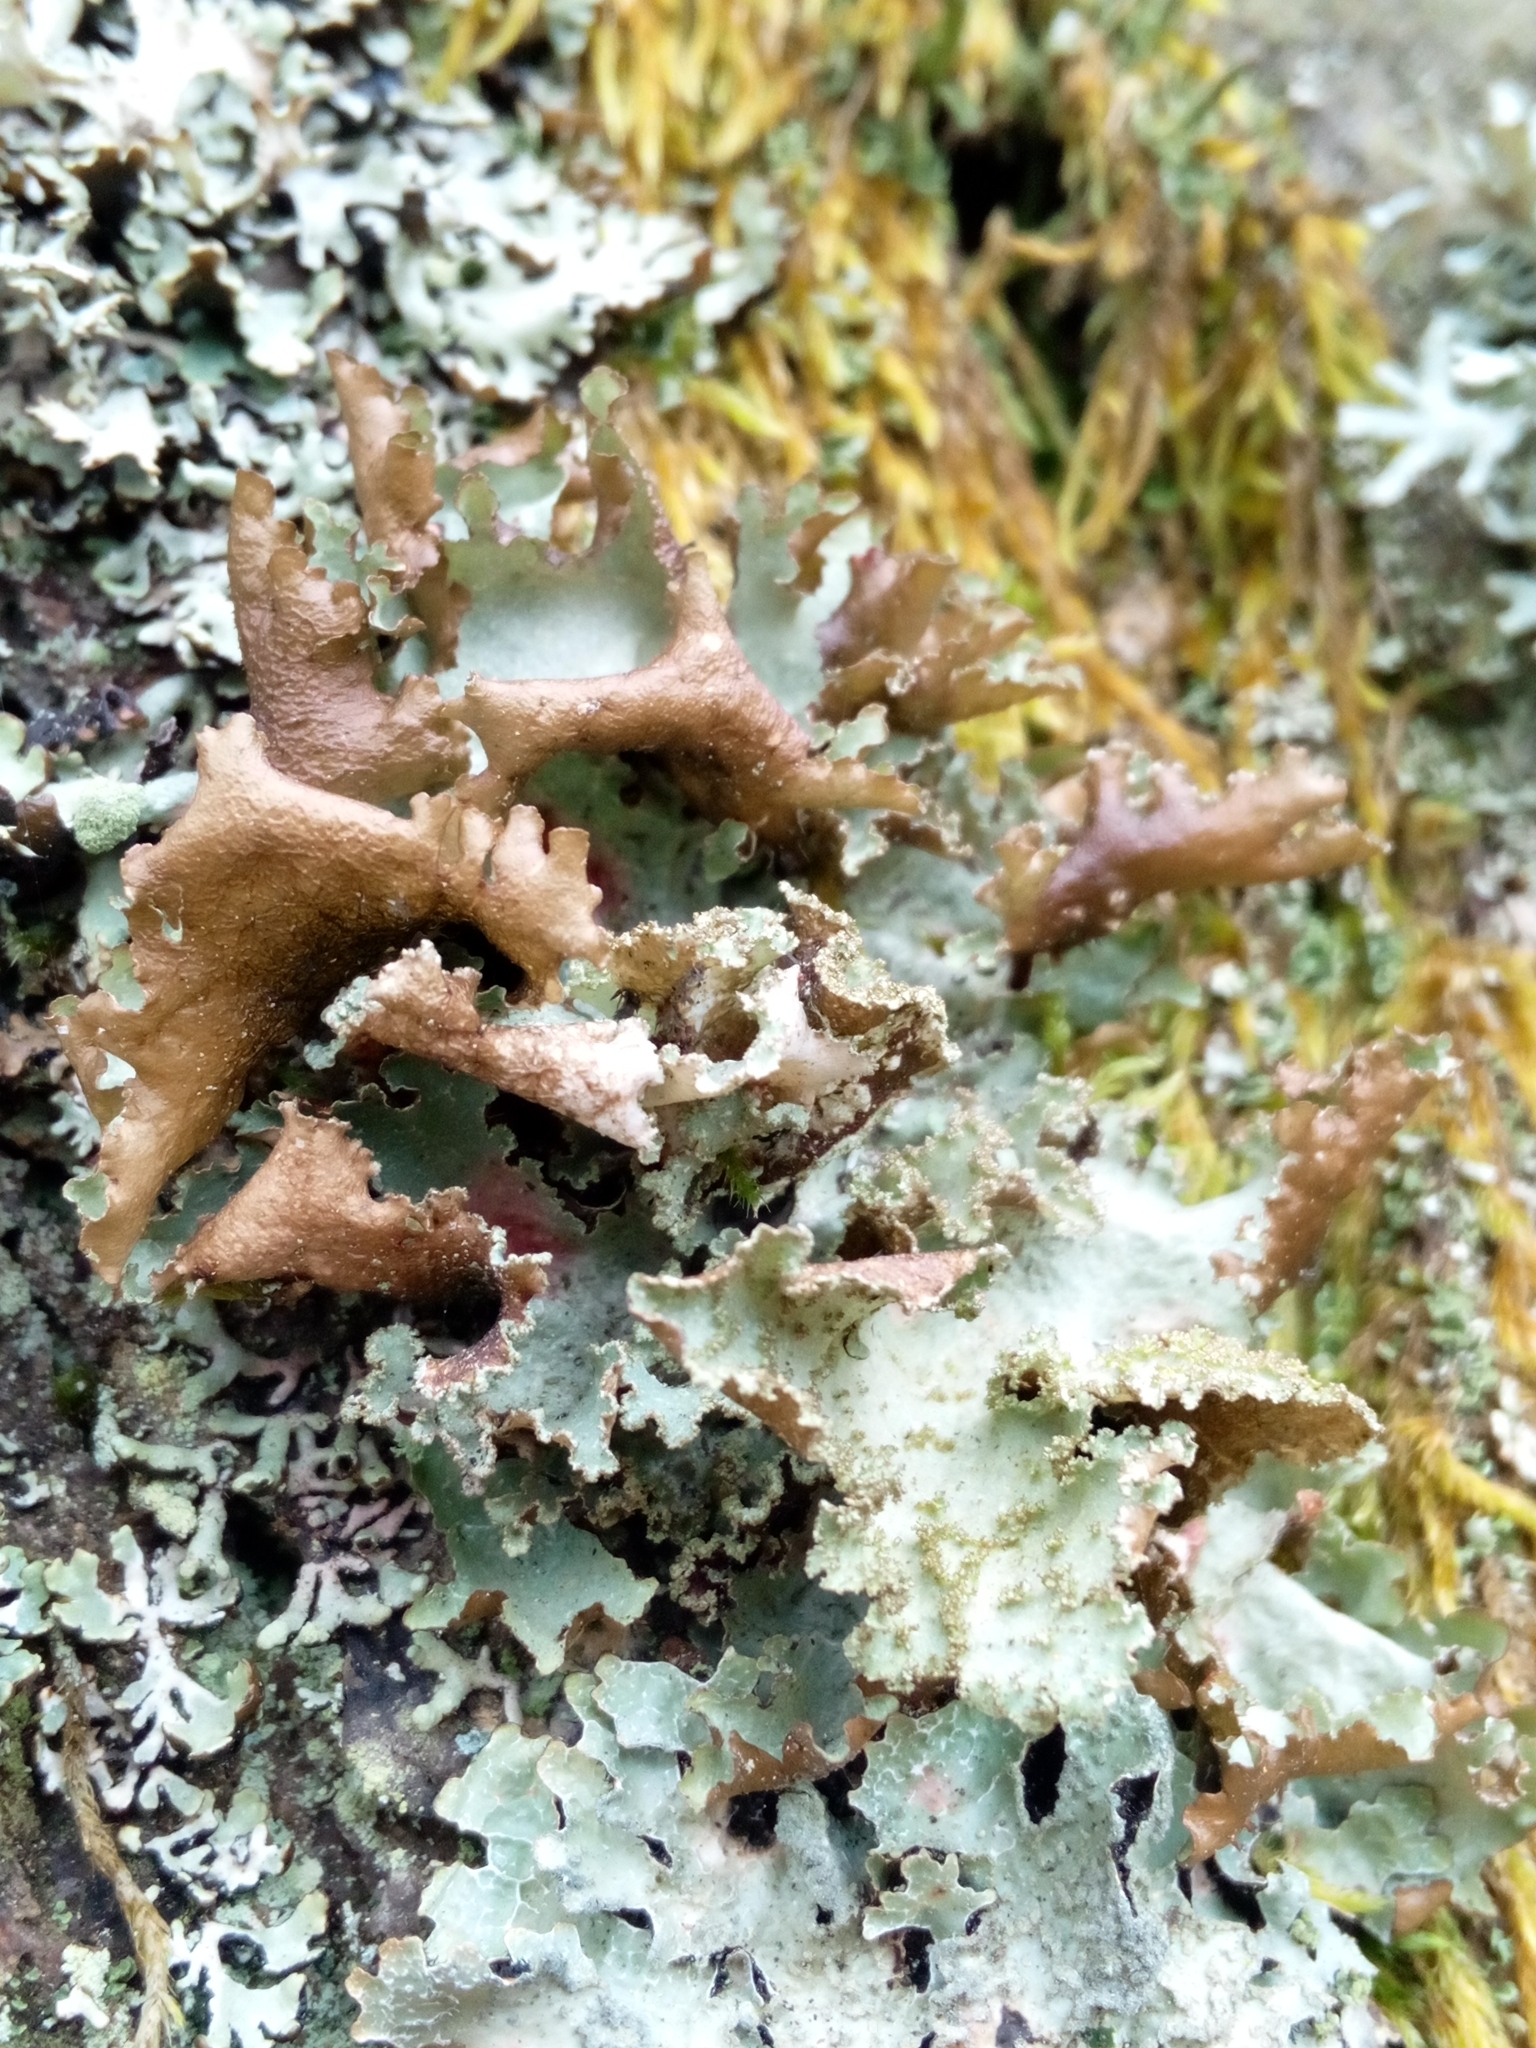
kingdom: Fungi
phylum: Ascomycota
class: Lecanoromycetes
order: Lecanorales
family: Parmeliaceae
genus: Platismatia
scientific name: Platismatia glauca
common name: Varied rag lichen
